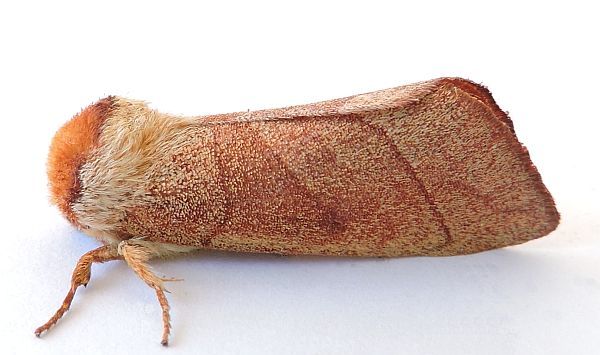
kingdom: Animalia
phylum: Arthropoda
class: Insecta
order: Lepidoptera
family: Notodontidae
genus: Datana
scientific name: Datana perfusa
